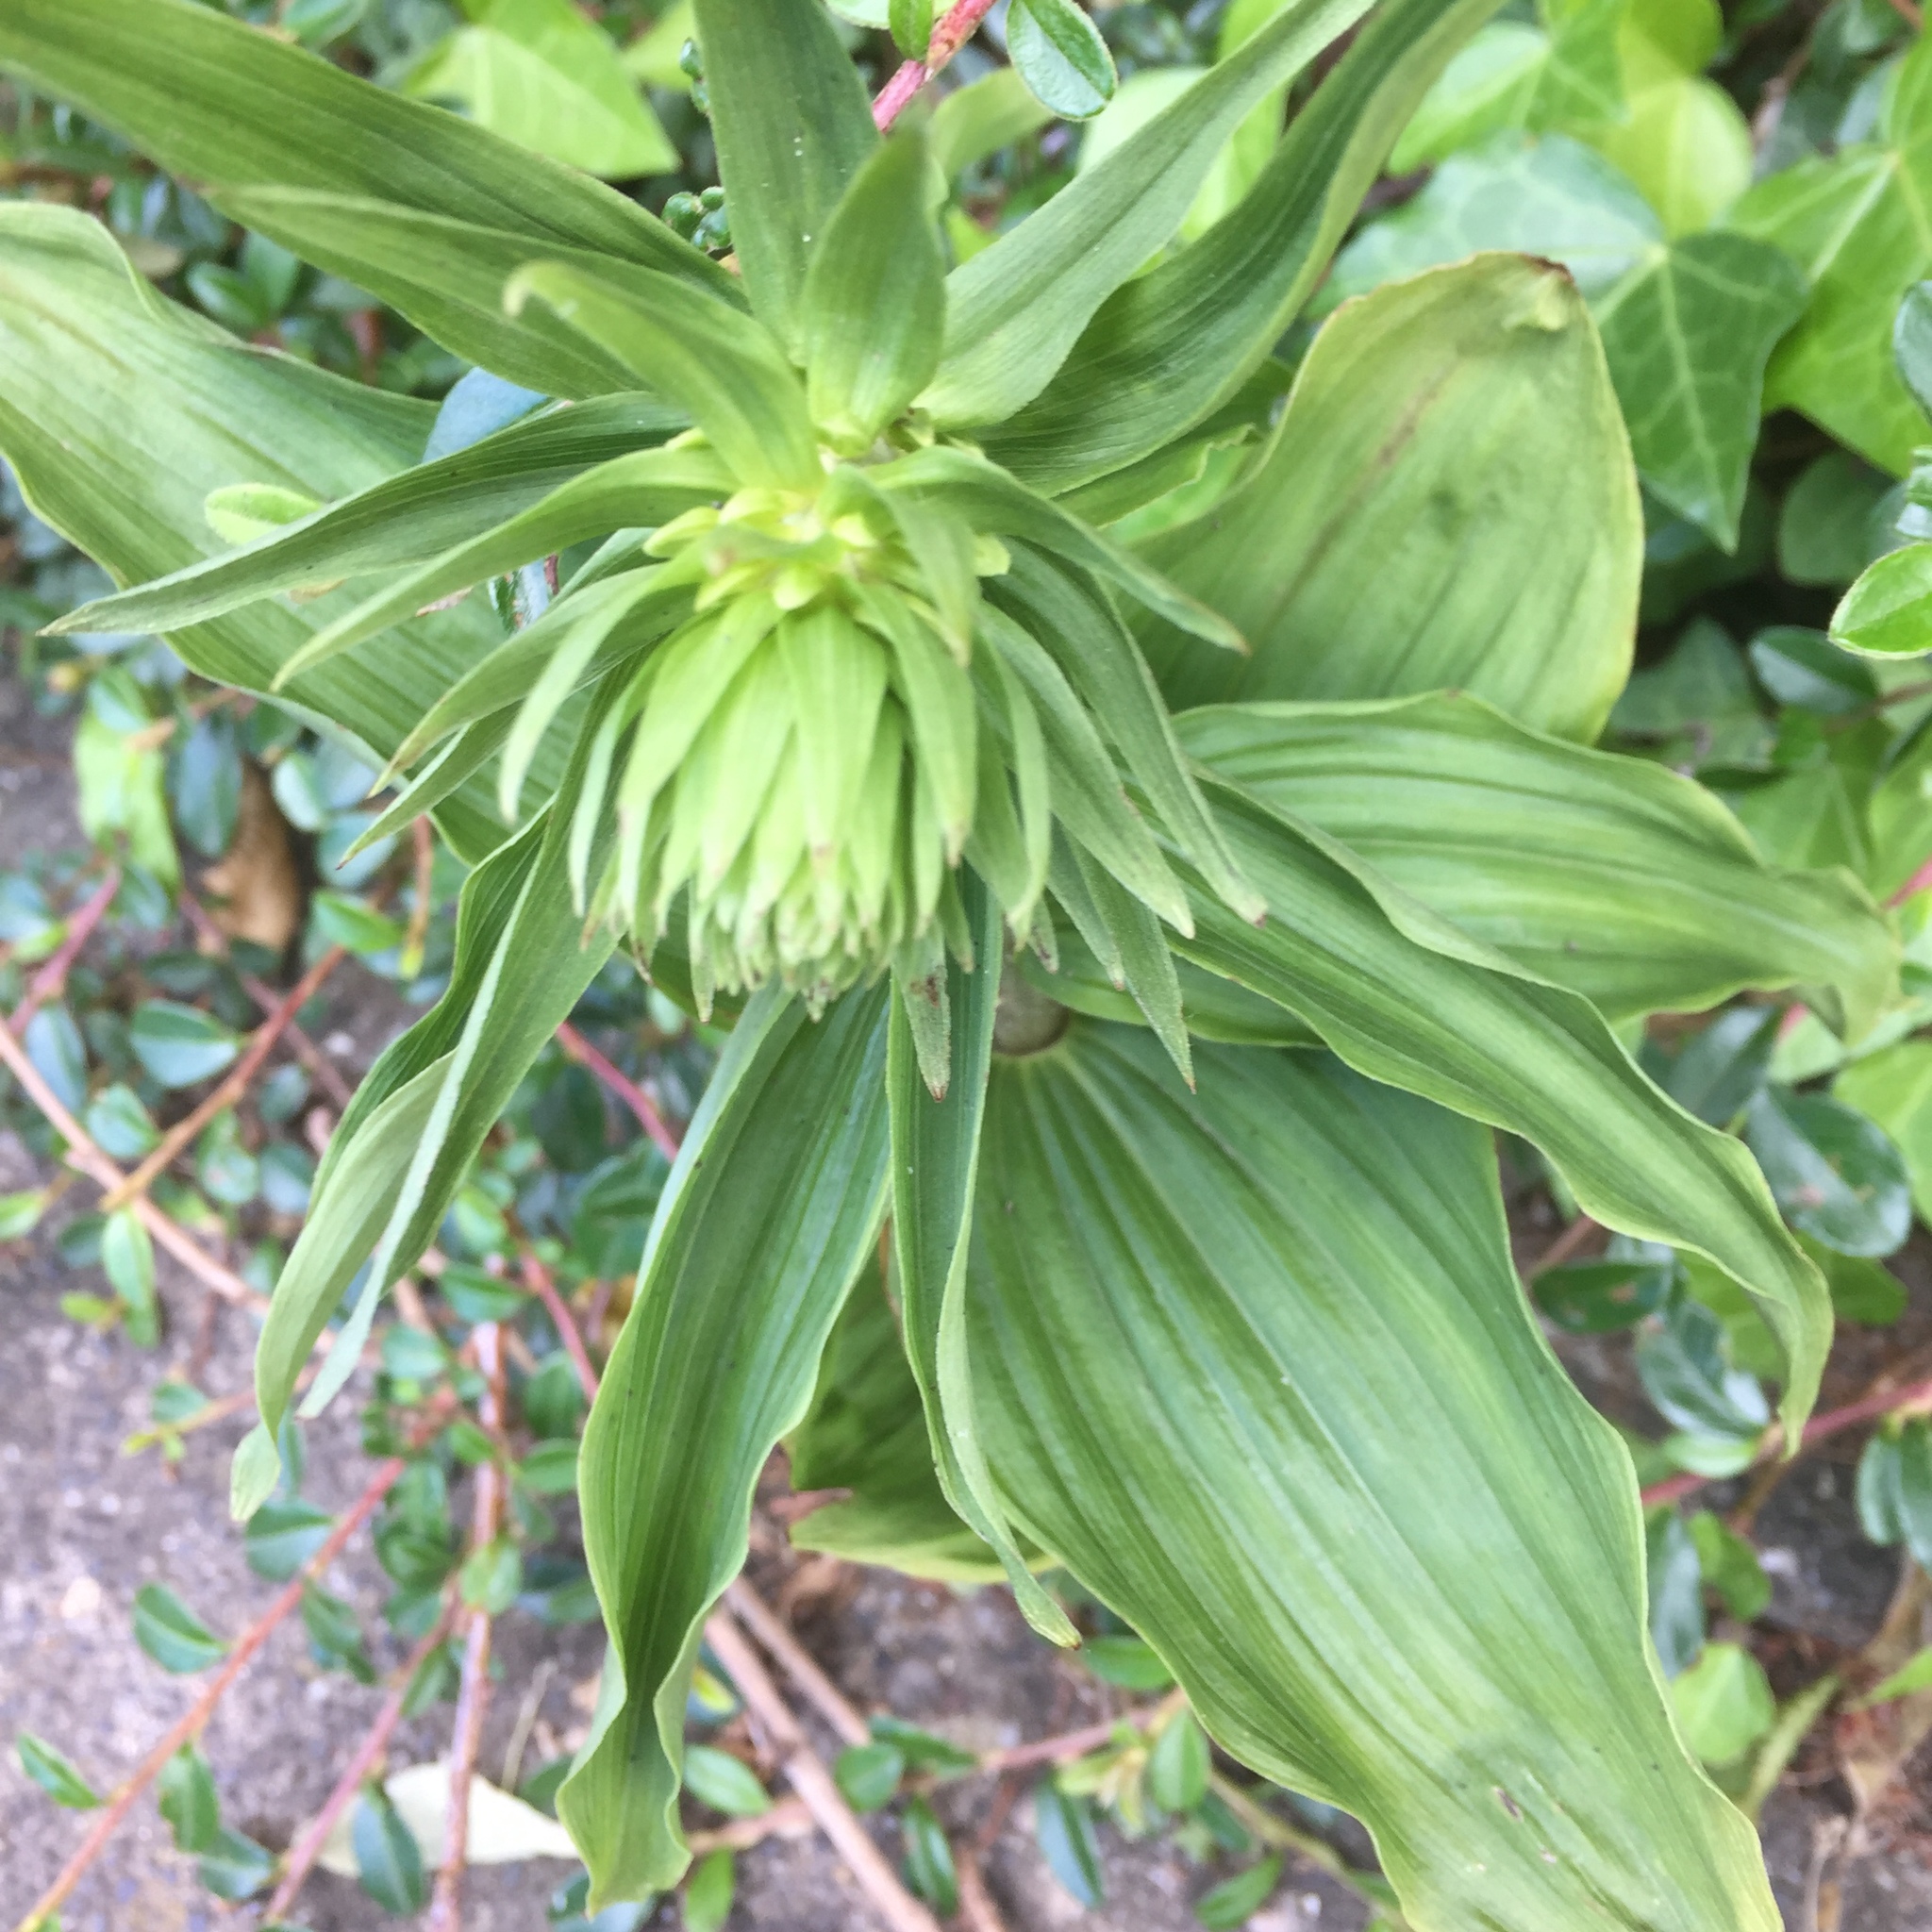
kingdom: Plantae
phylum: Tracheophyta
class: Liliopsida
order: Asparagales
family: Orchidaceae
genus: Epipactis
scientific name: Epipactis helleborine
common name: Broad-leaved helleborine
